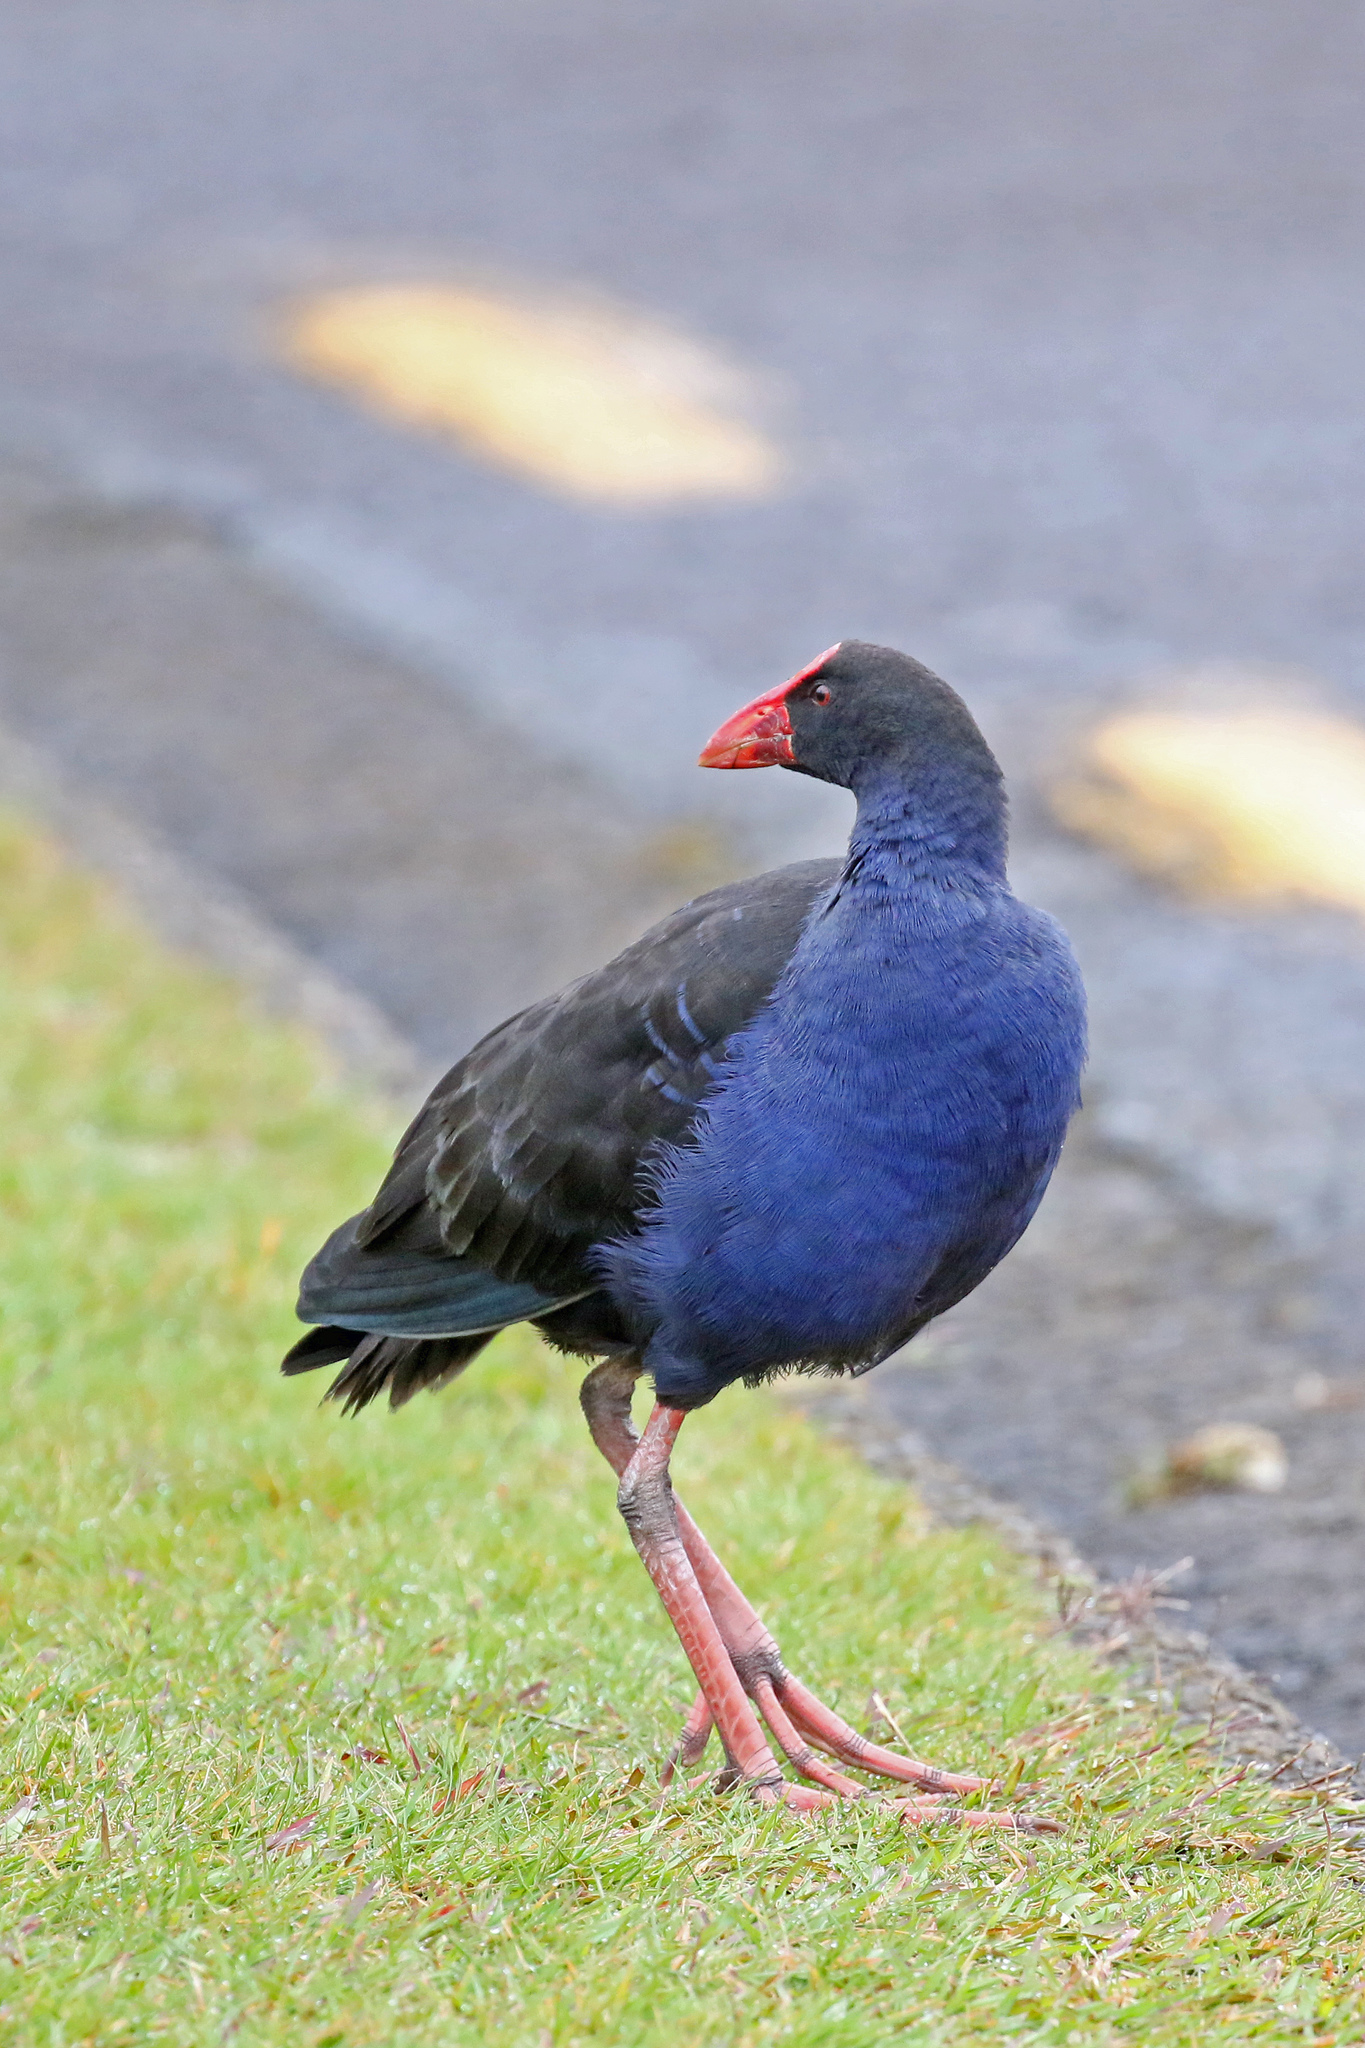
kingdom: Animalia
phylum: Chordata
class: Aves
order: Gruiformes
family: Rallidae
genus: Porphyrio
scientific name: Porphyrio melanotus
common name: Australasian swamphen
